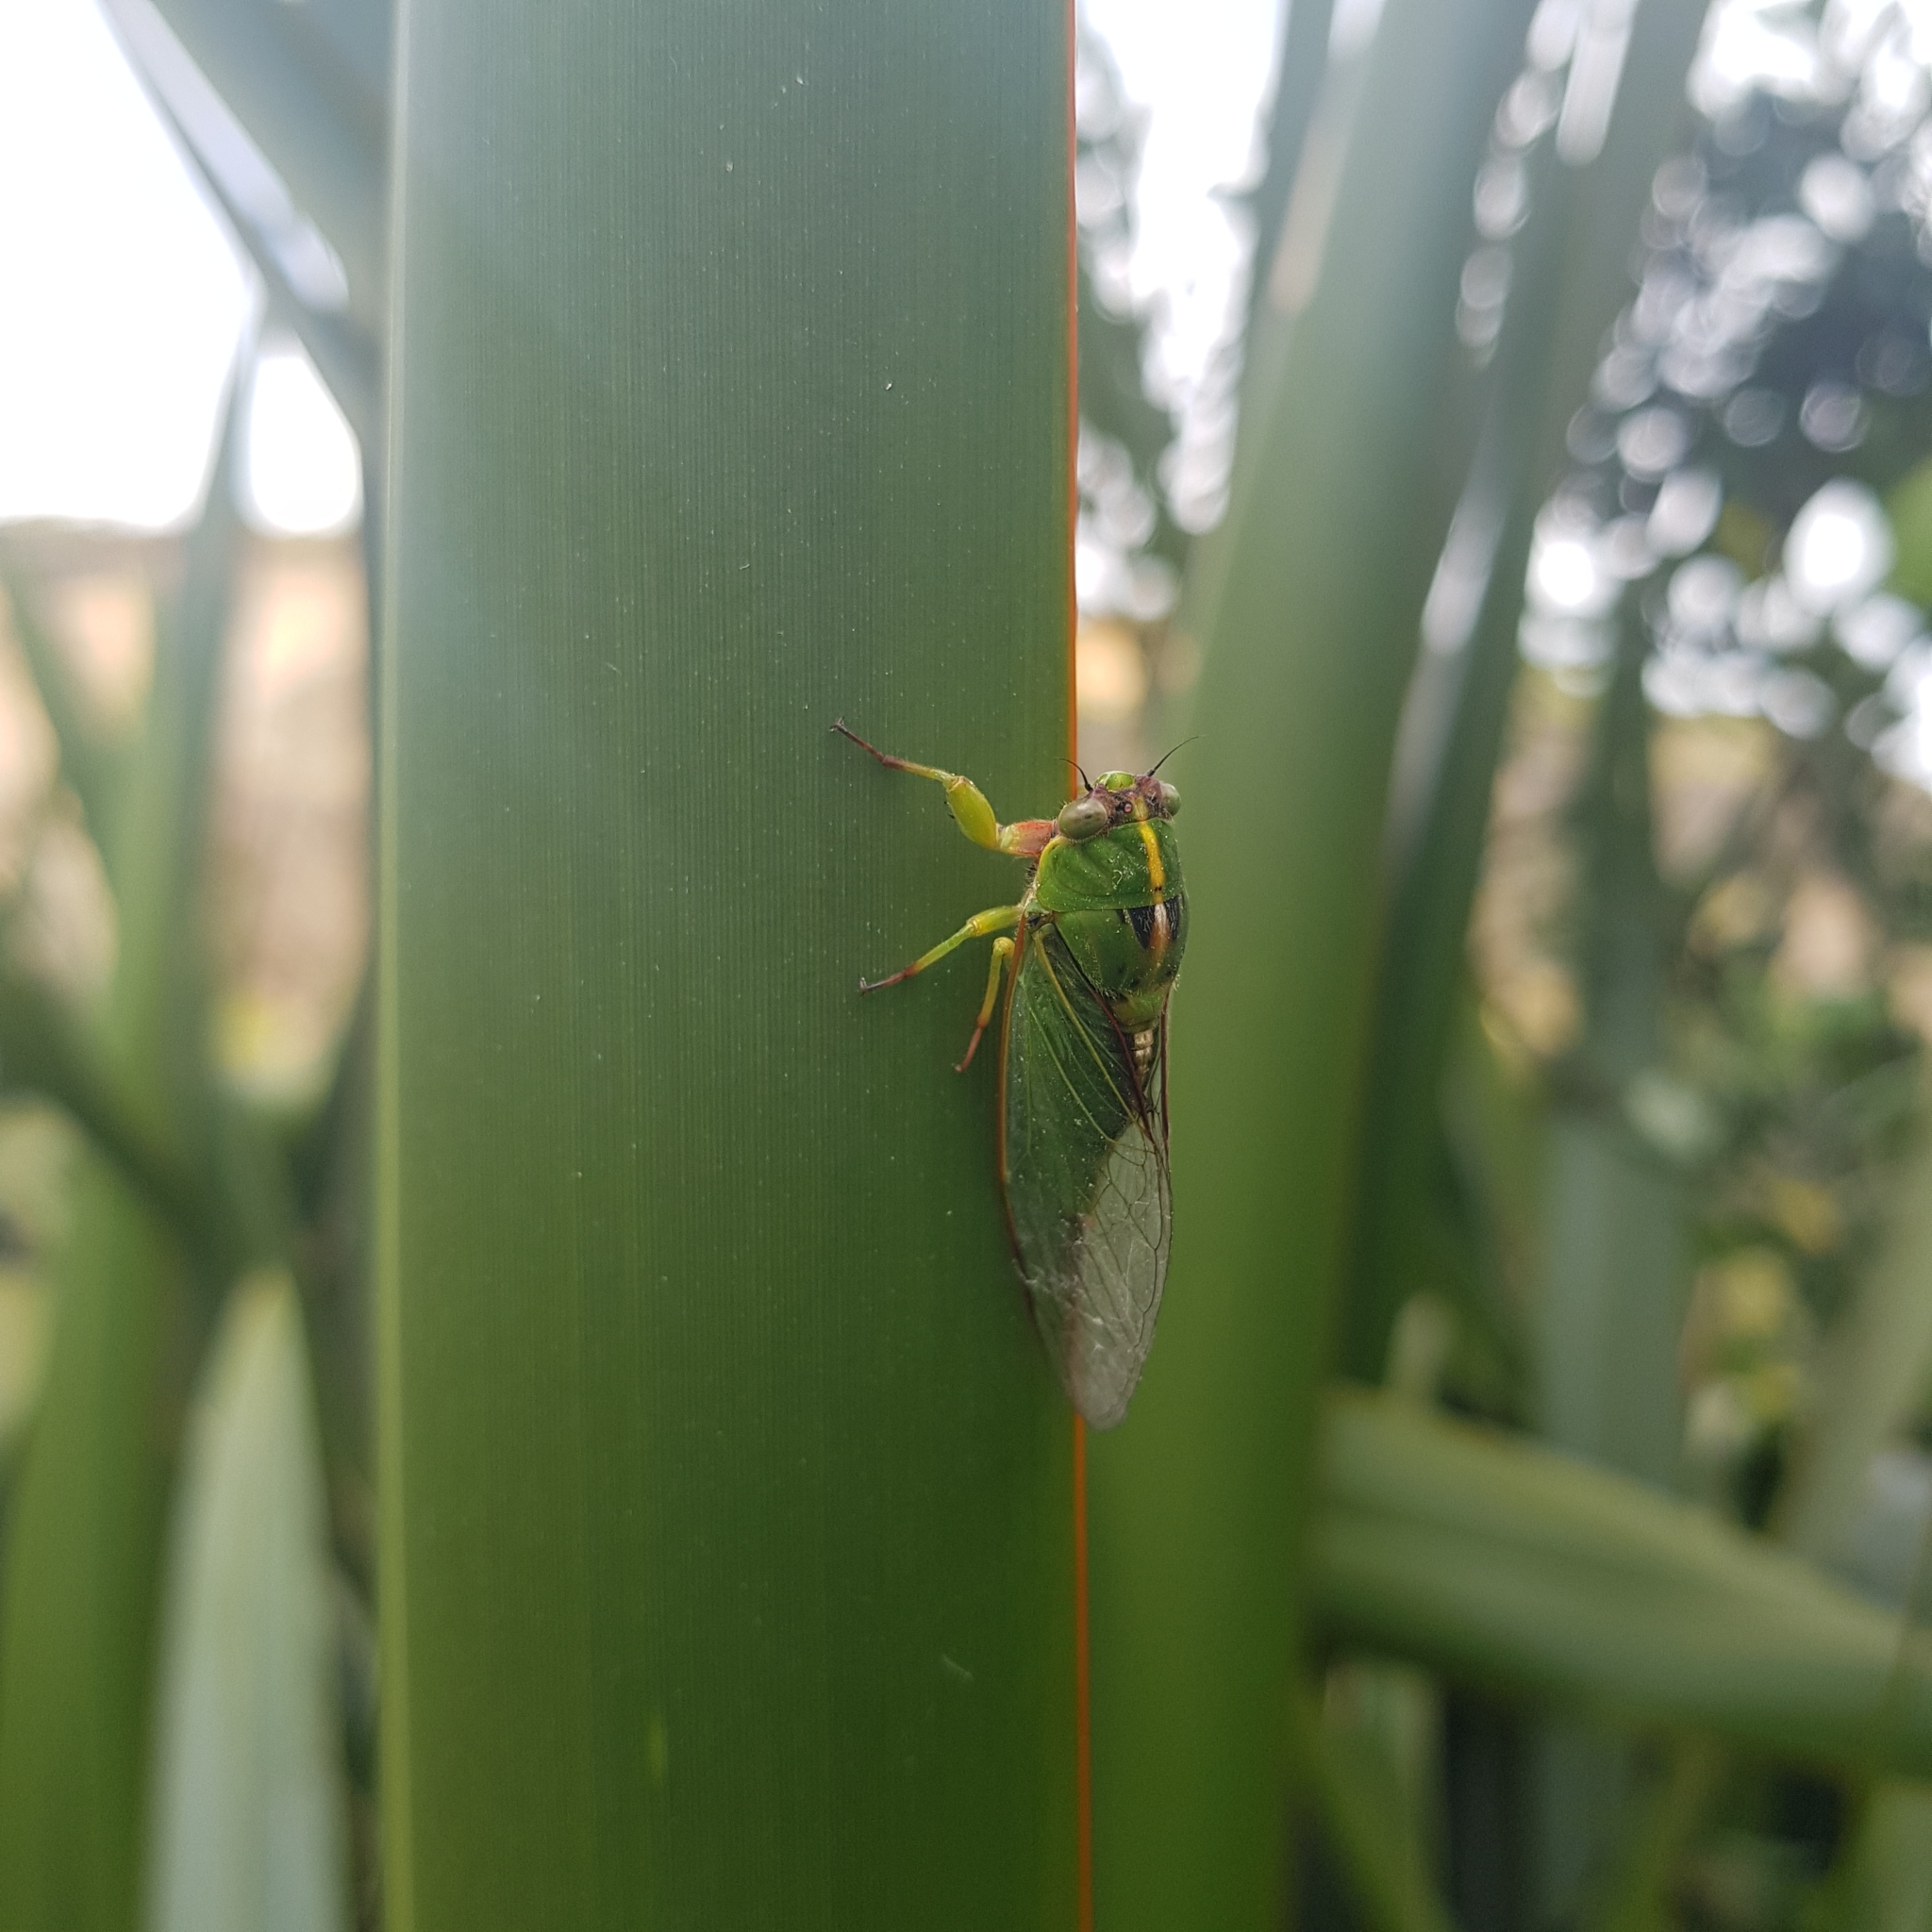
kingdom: Animalia
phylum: Arthropoda
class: Insecta
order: Hemiptera
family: Cicadidae
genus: Kikihia
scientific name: Kikihia cutora
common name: Northern snoring cicada
